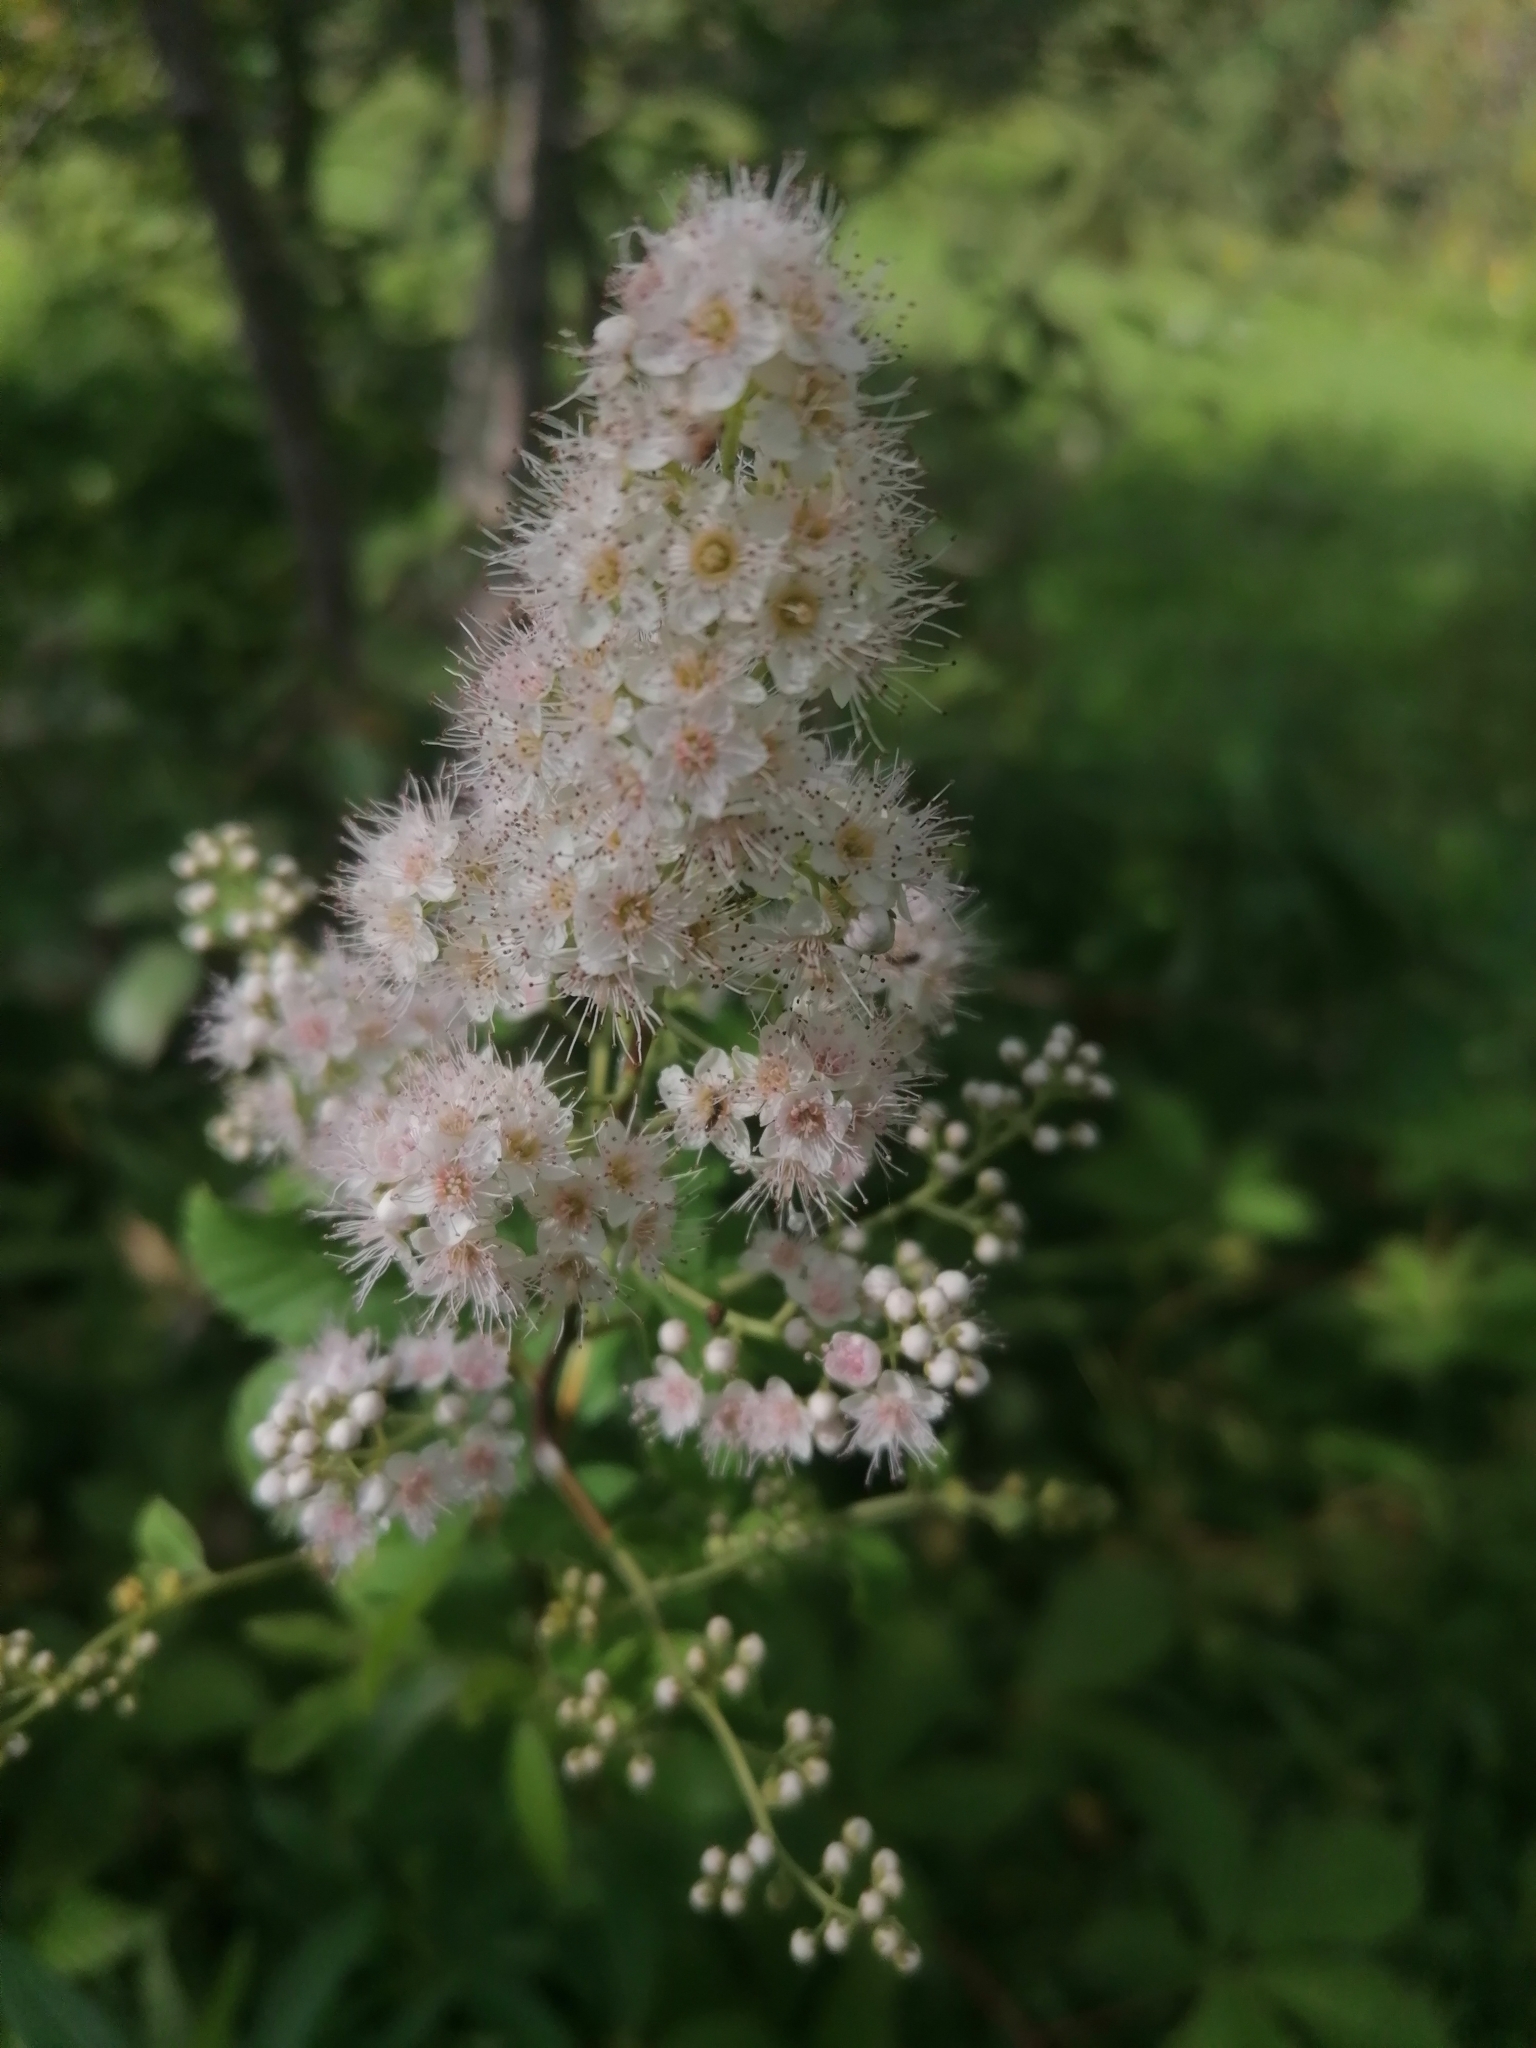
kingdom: Plantae
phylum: Tracheophyta
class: Magnoliopsida
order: Rosales
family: Rosaceae
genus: Spiraea
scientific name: Spiraea alba
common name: Pale bridewort
